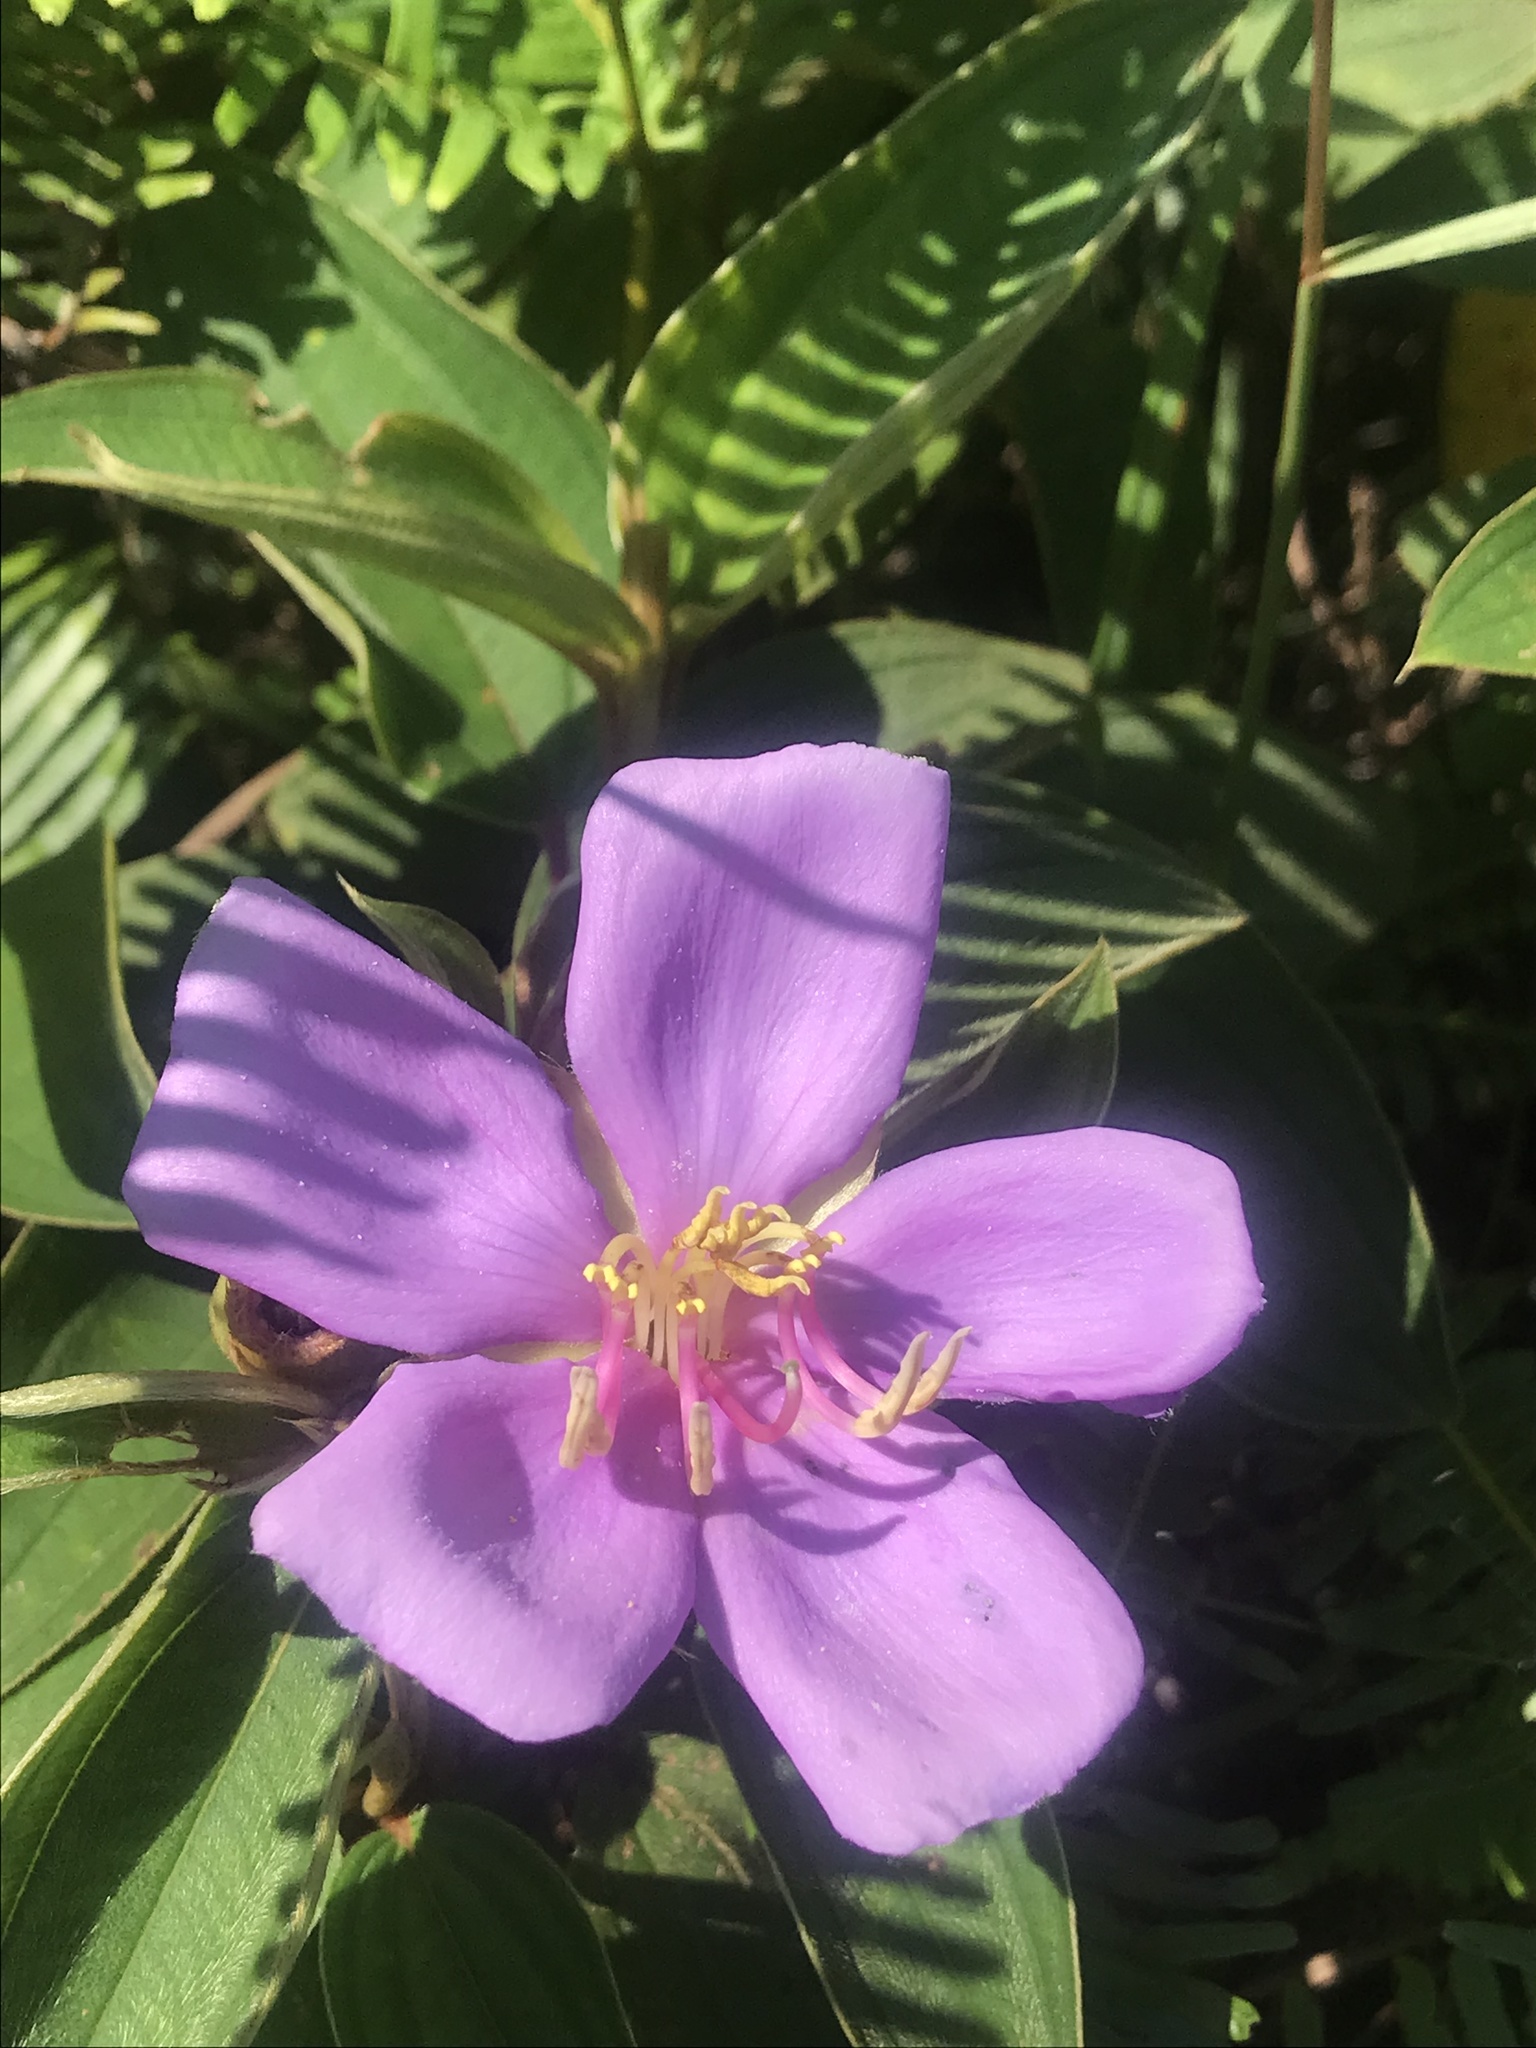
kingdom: Plantae
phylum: Tracheophyta
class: Magnoliopsida
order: Myrtales
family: Melastomataceae
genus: Melastoma
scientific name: Melastoma malabathricum
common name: Indian-rhododendron
